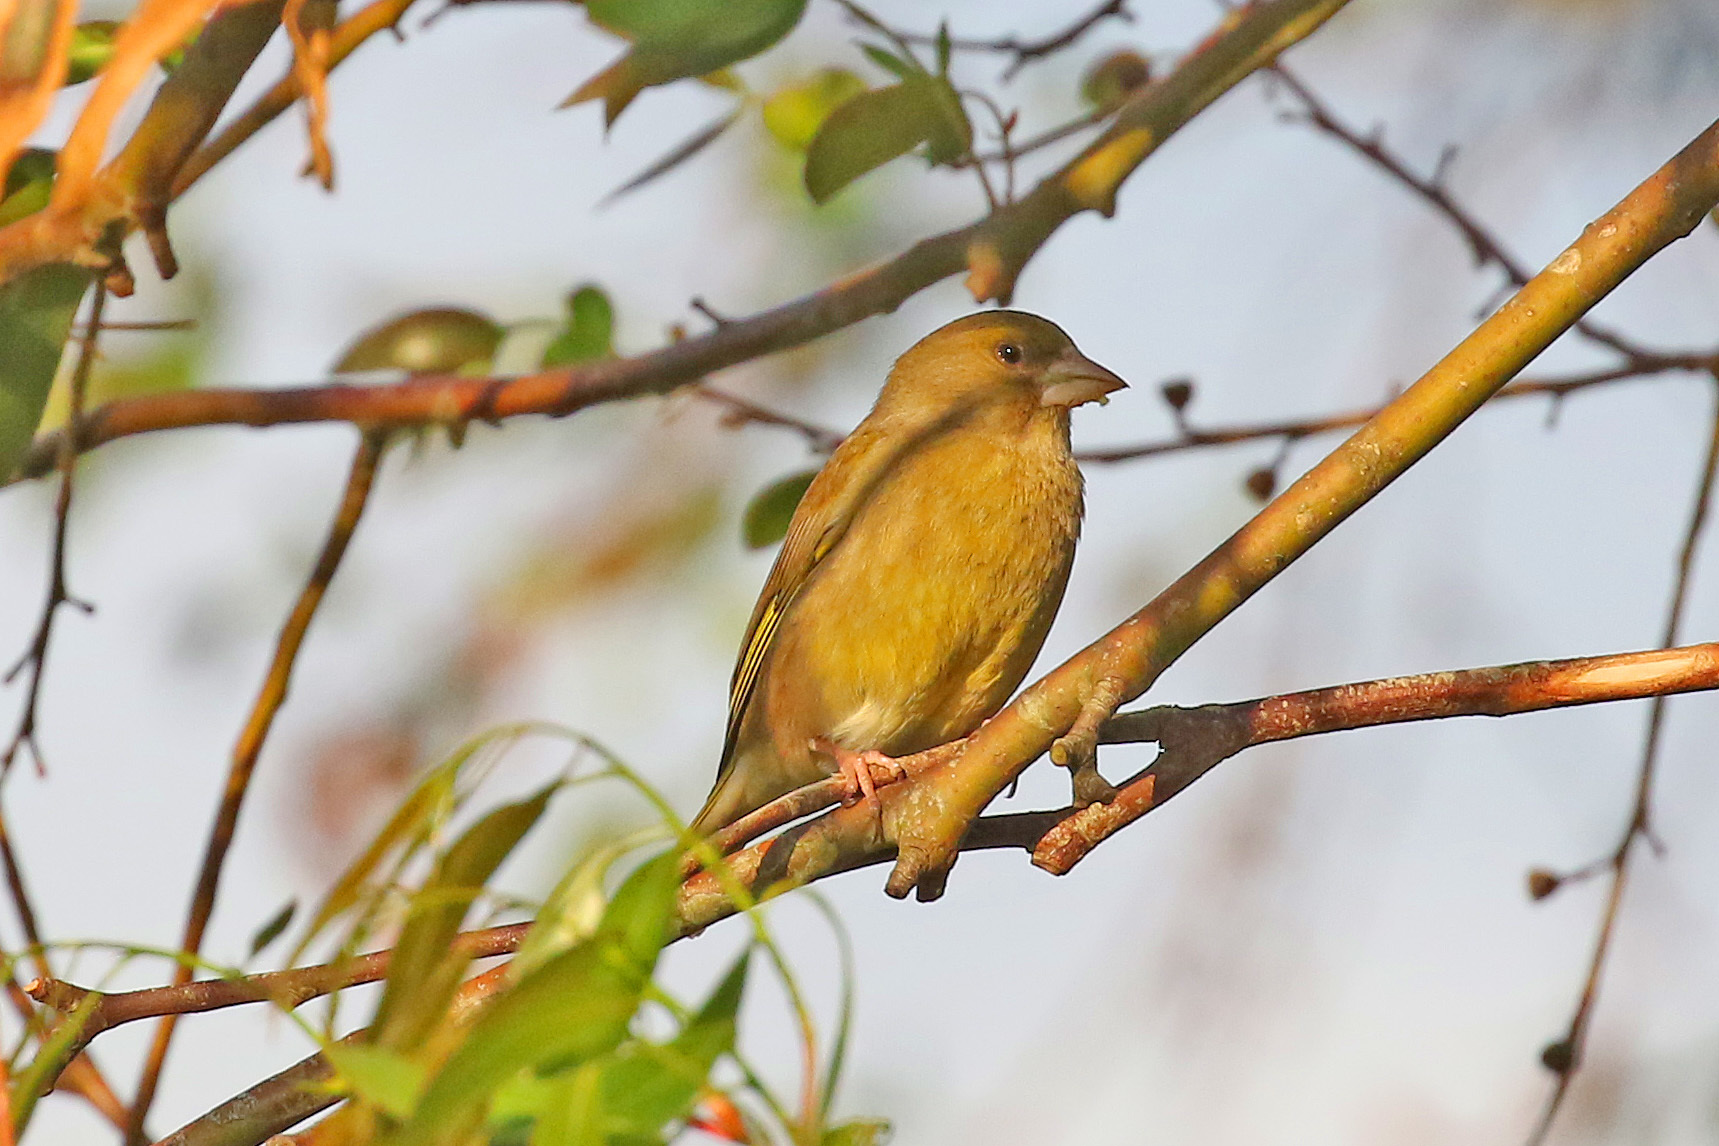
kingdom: Plantae
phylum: Tracheophyta
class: Liliopsida
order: Poales
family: Poaceae
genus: Chloris
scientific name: Chloris chloris
